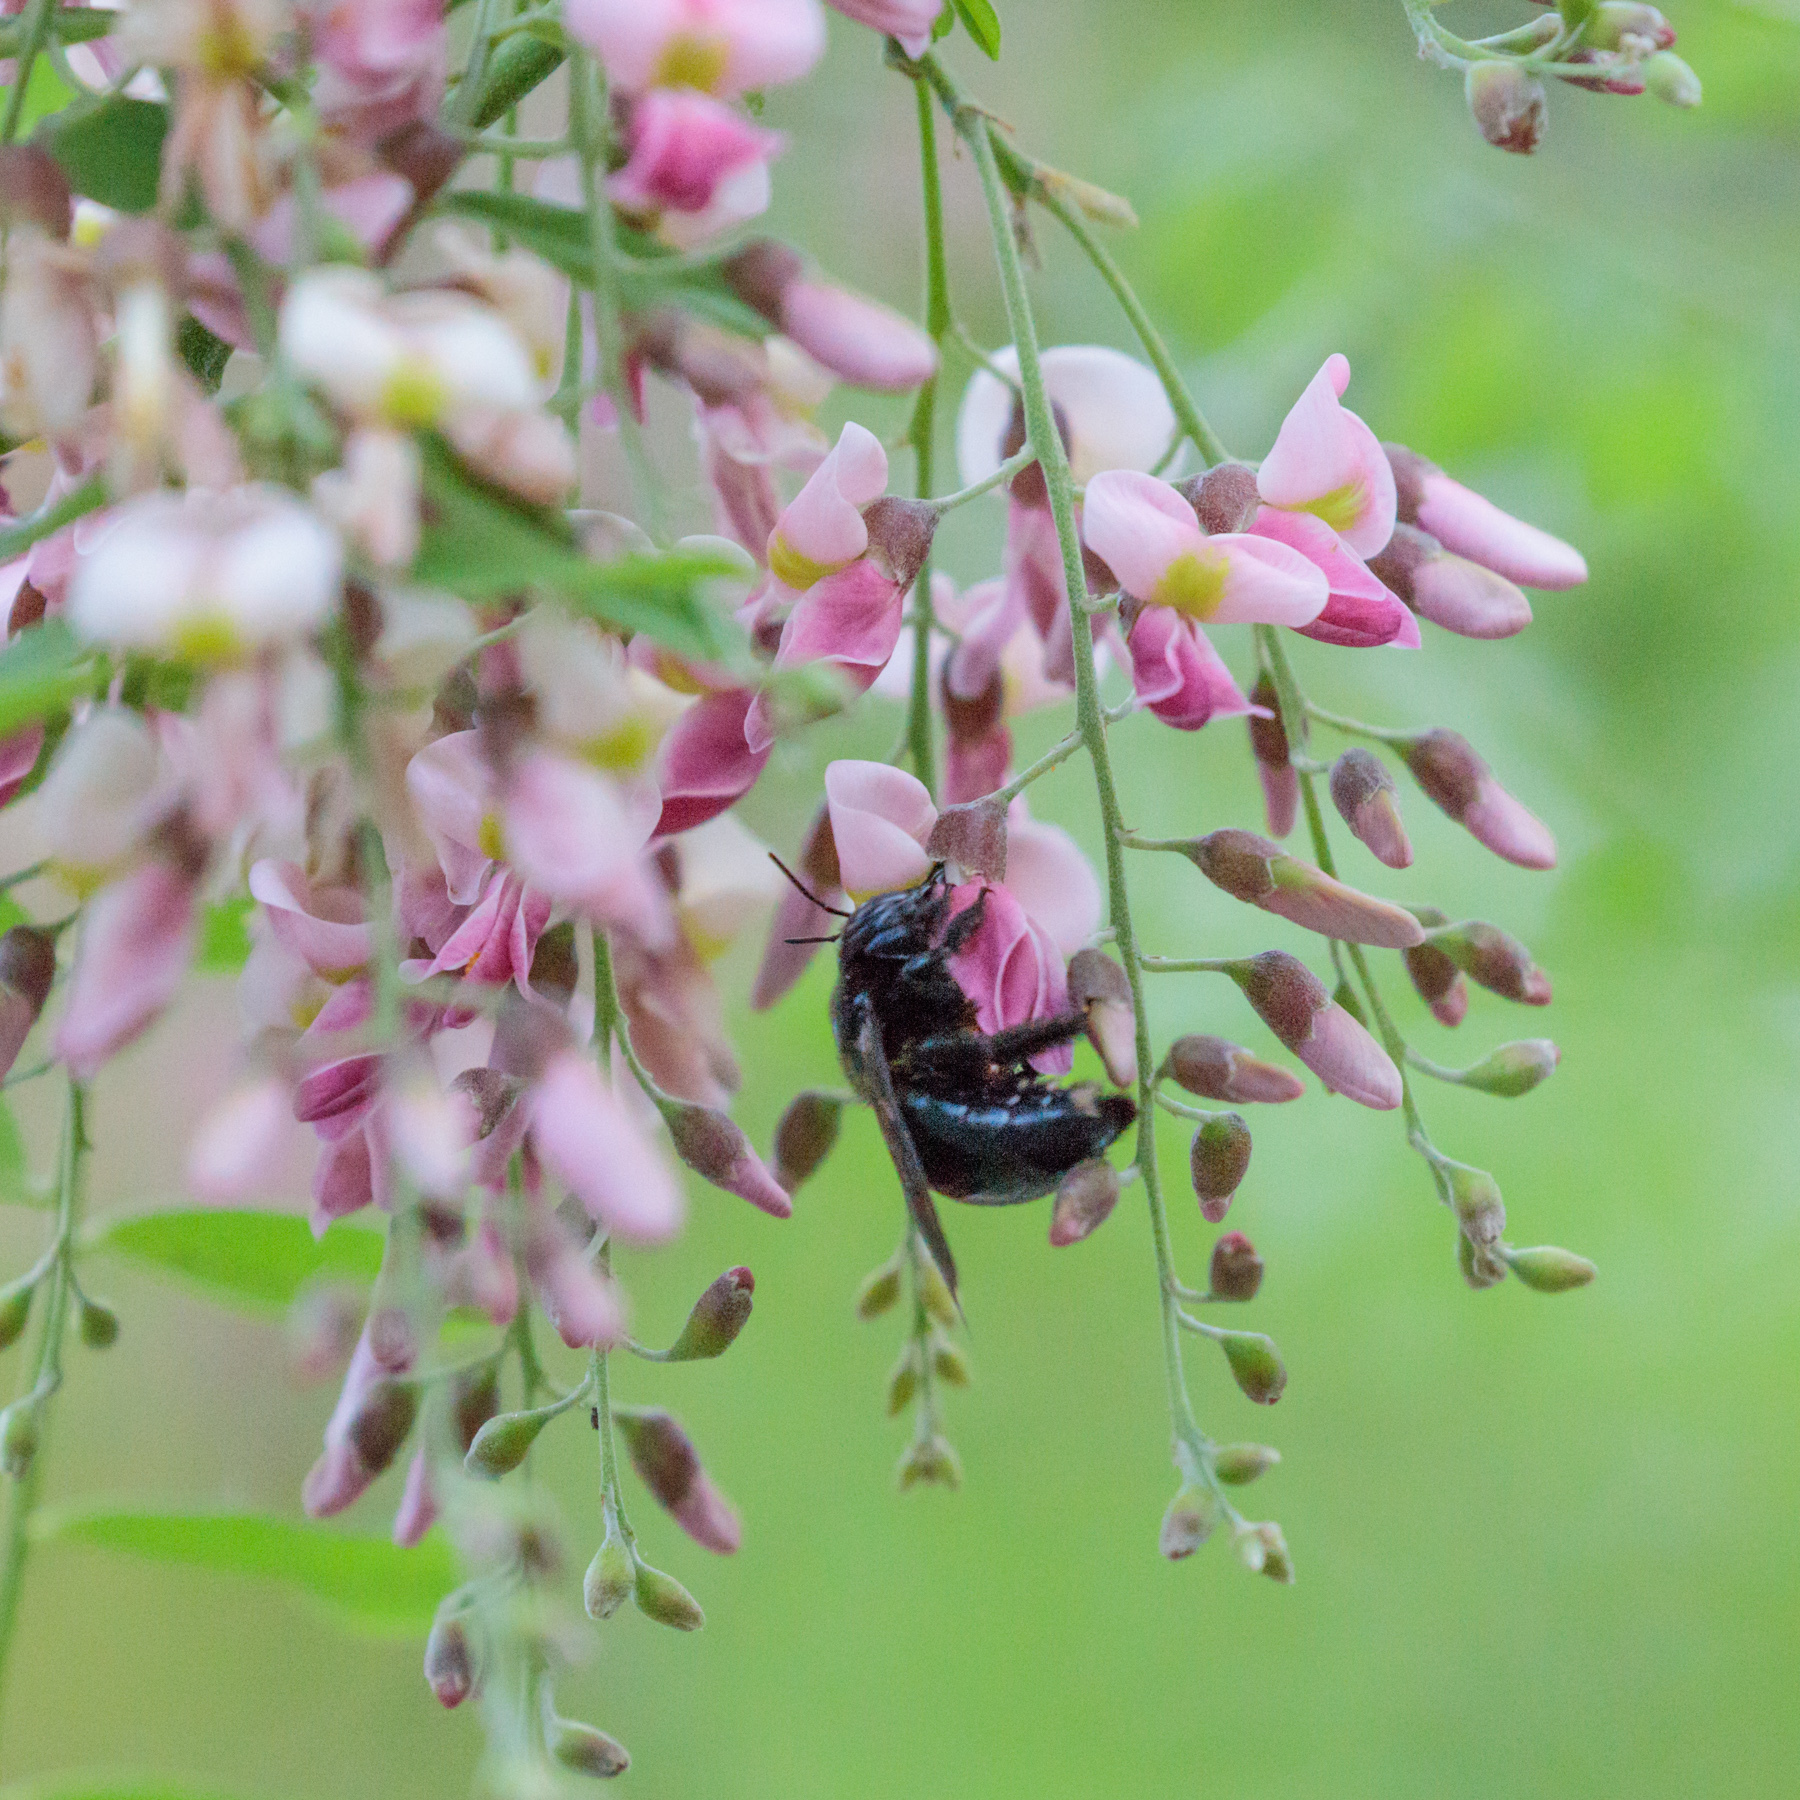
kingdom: Animalia
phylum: Arthropoda
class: Insecta
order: Hymenoptera
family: Apidae
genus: Xylocopa
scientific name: Xylocopa micans
